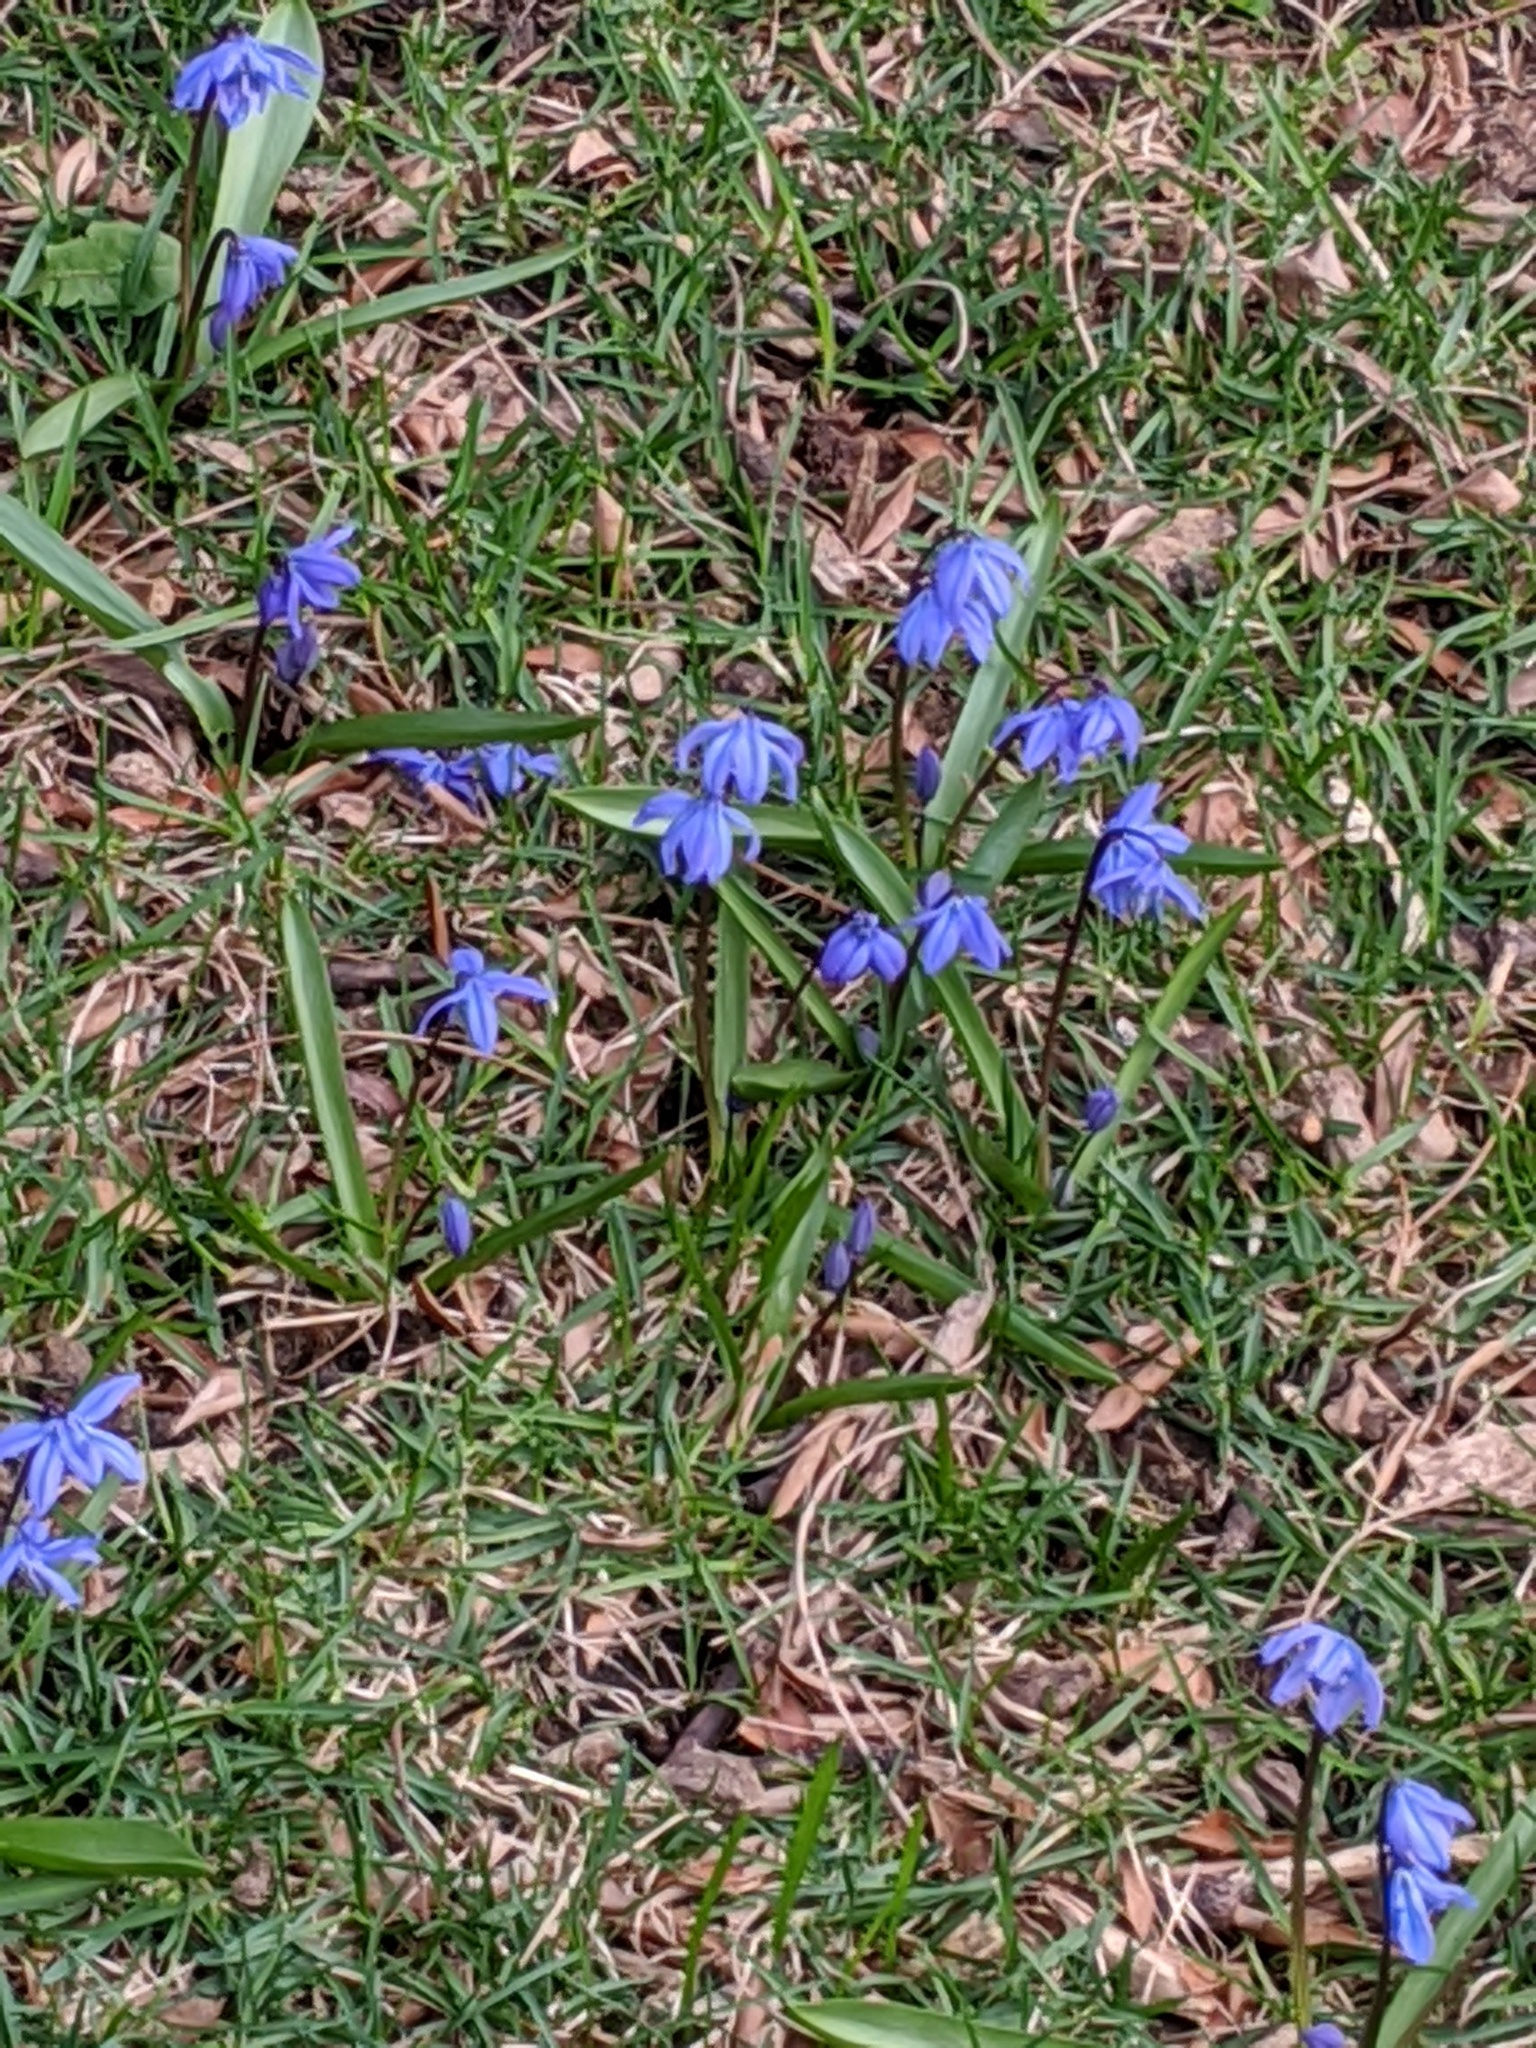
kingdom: Plantae
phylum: Tracheophyta
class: Liliopsida
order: Asparagales
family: Asparagaceae
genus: Scilla
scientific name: Scilla siberica
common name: Siberian squill
